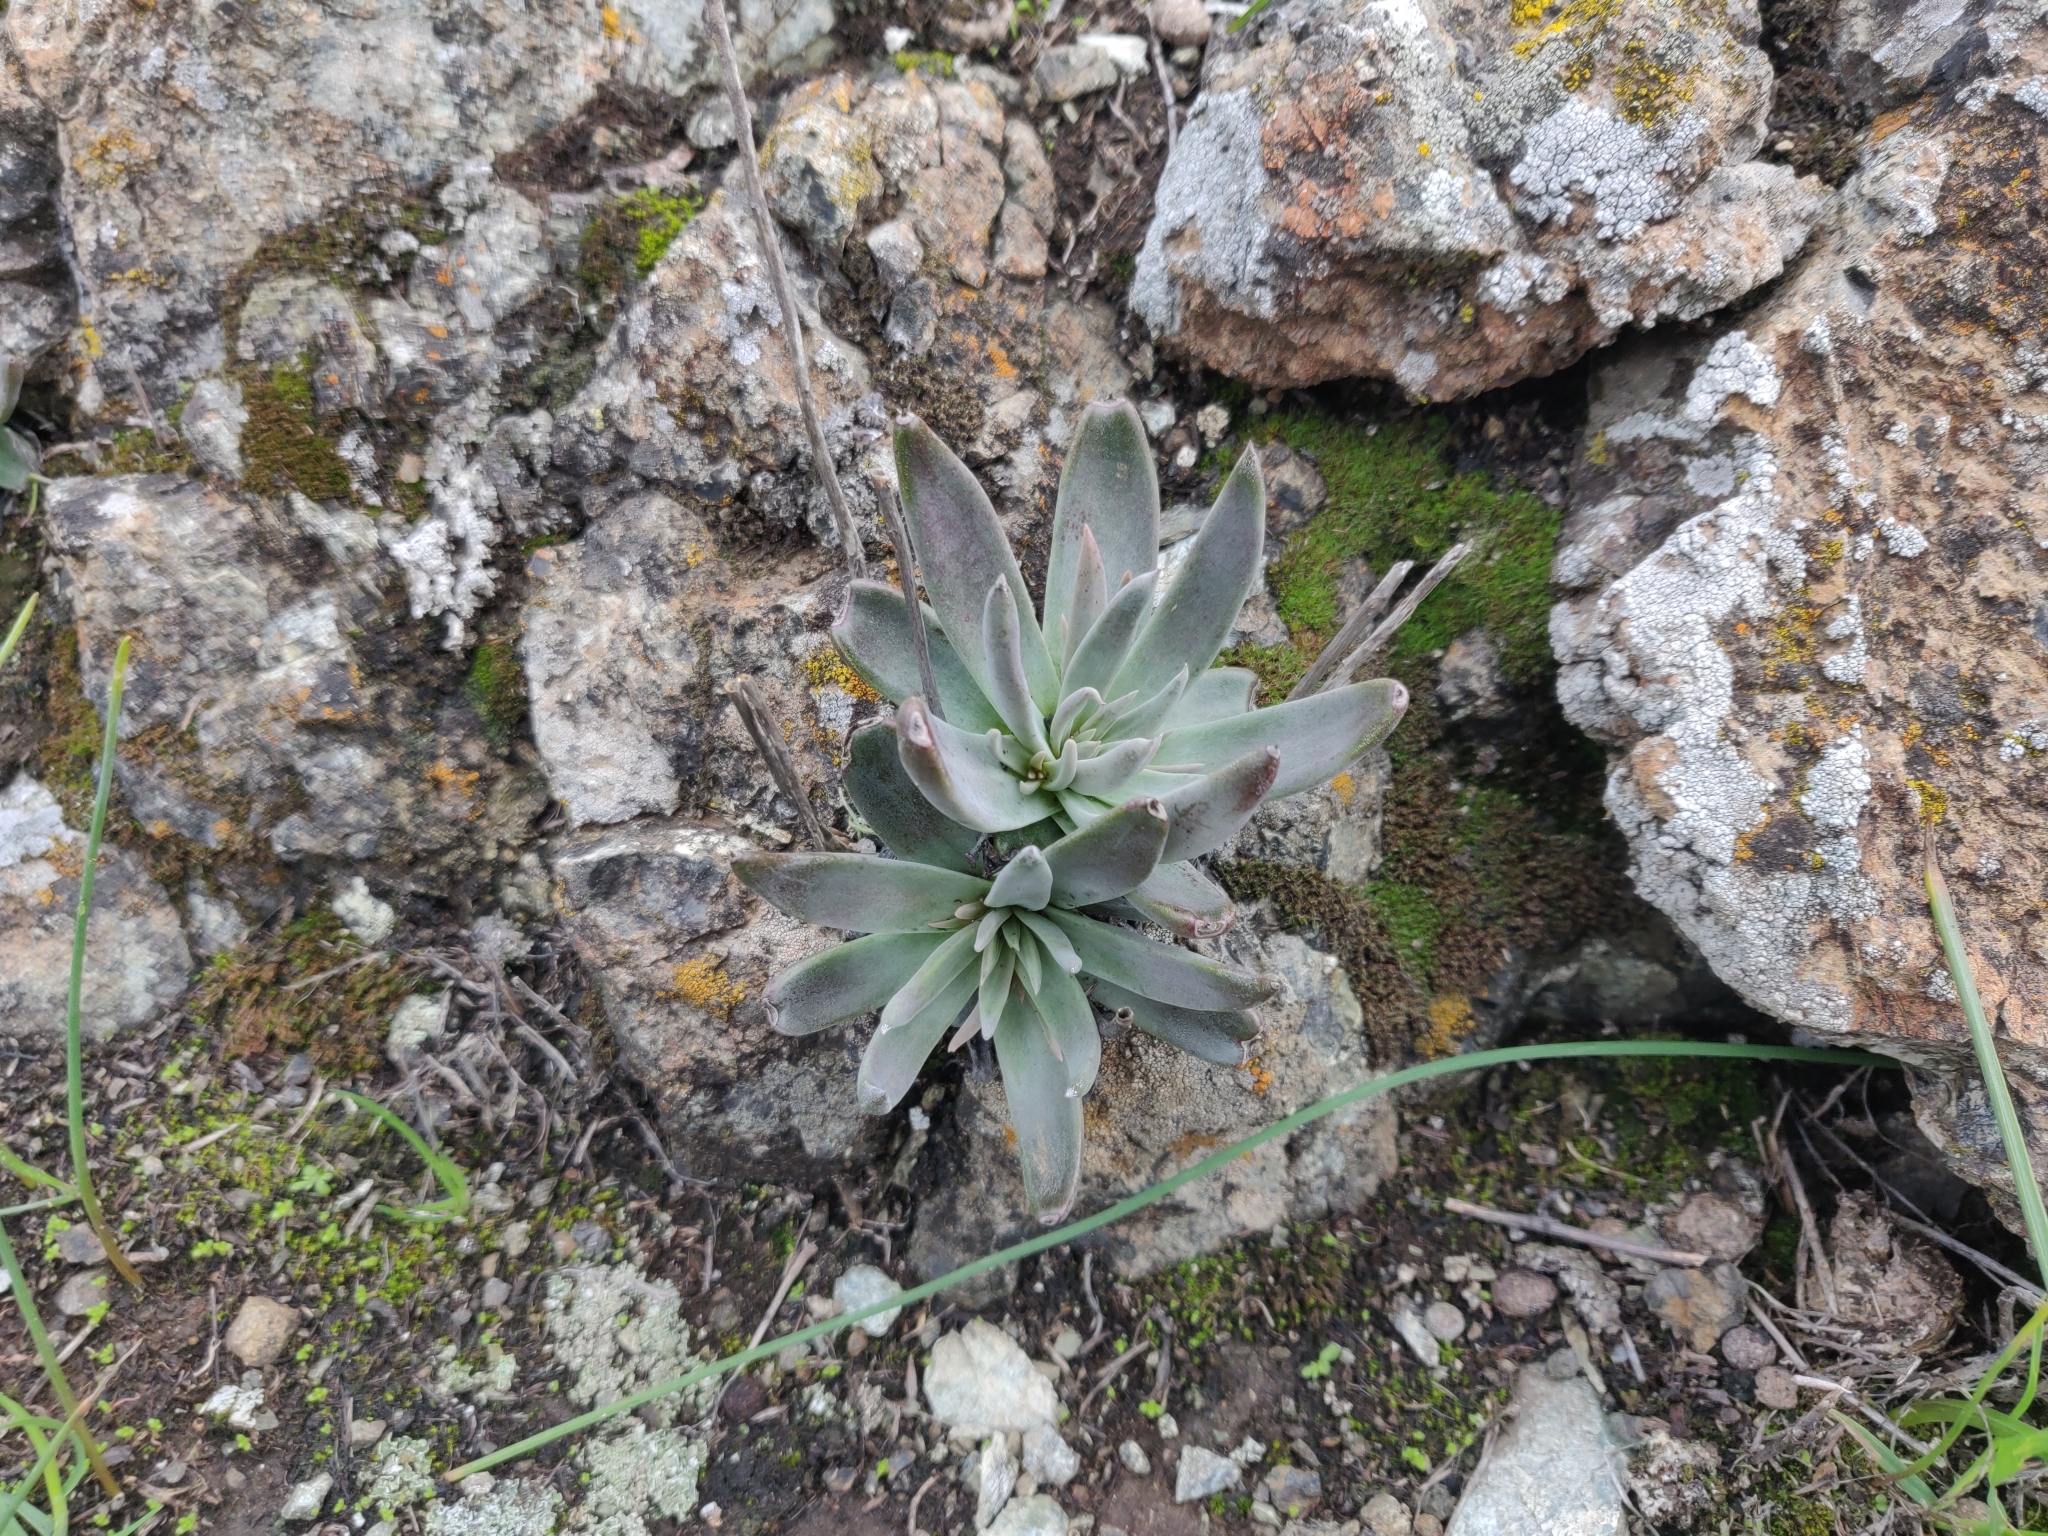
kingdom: Plantae
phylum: Tracheophyta
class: Magnoliopsida
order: Saxifragales
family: Crassulaceae
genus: Dudleya
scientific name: Dudleya abramsii
